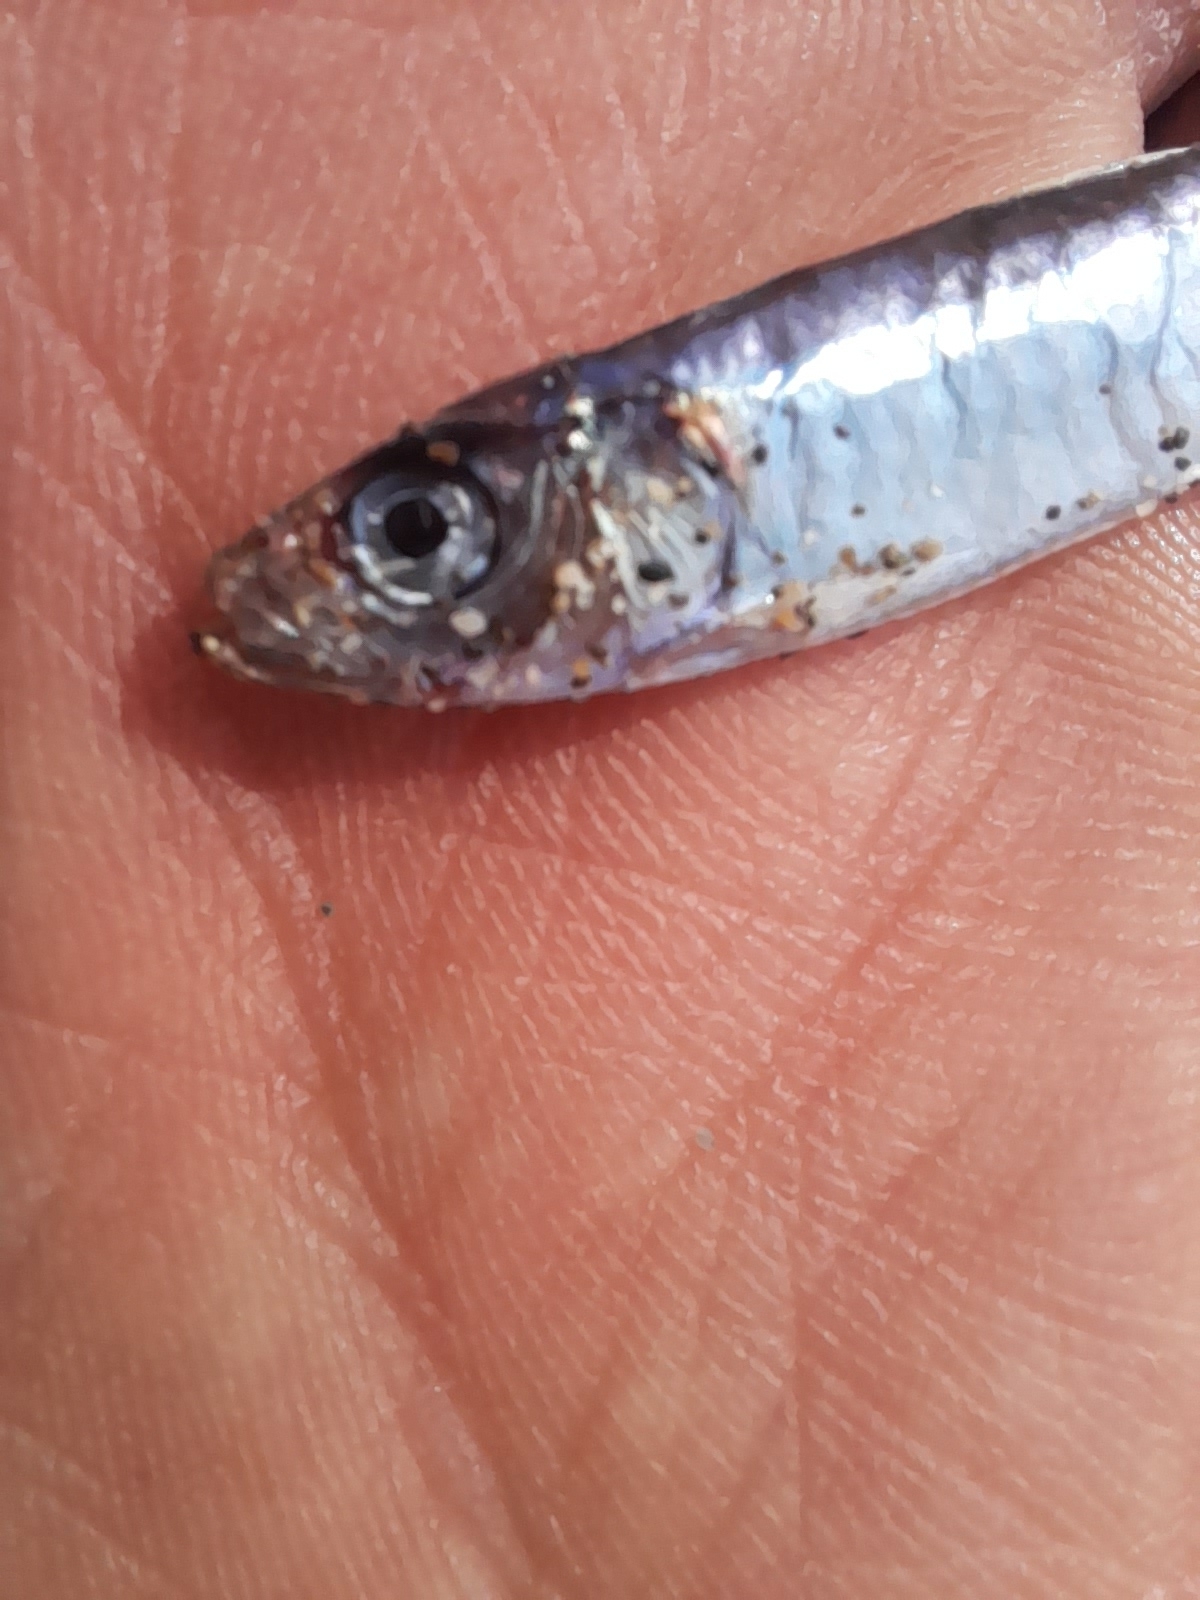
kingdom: Animalia
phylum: Chordata
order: Clupeiformes
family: Clupeidae
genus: Sardina
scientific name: Sardina pilchardus
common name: Pilchard
